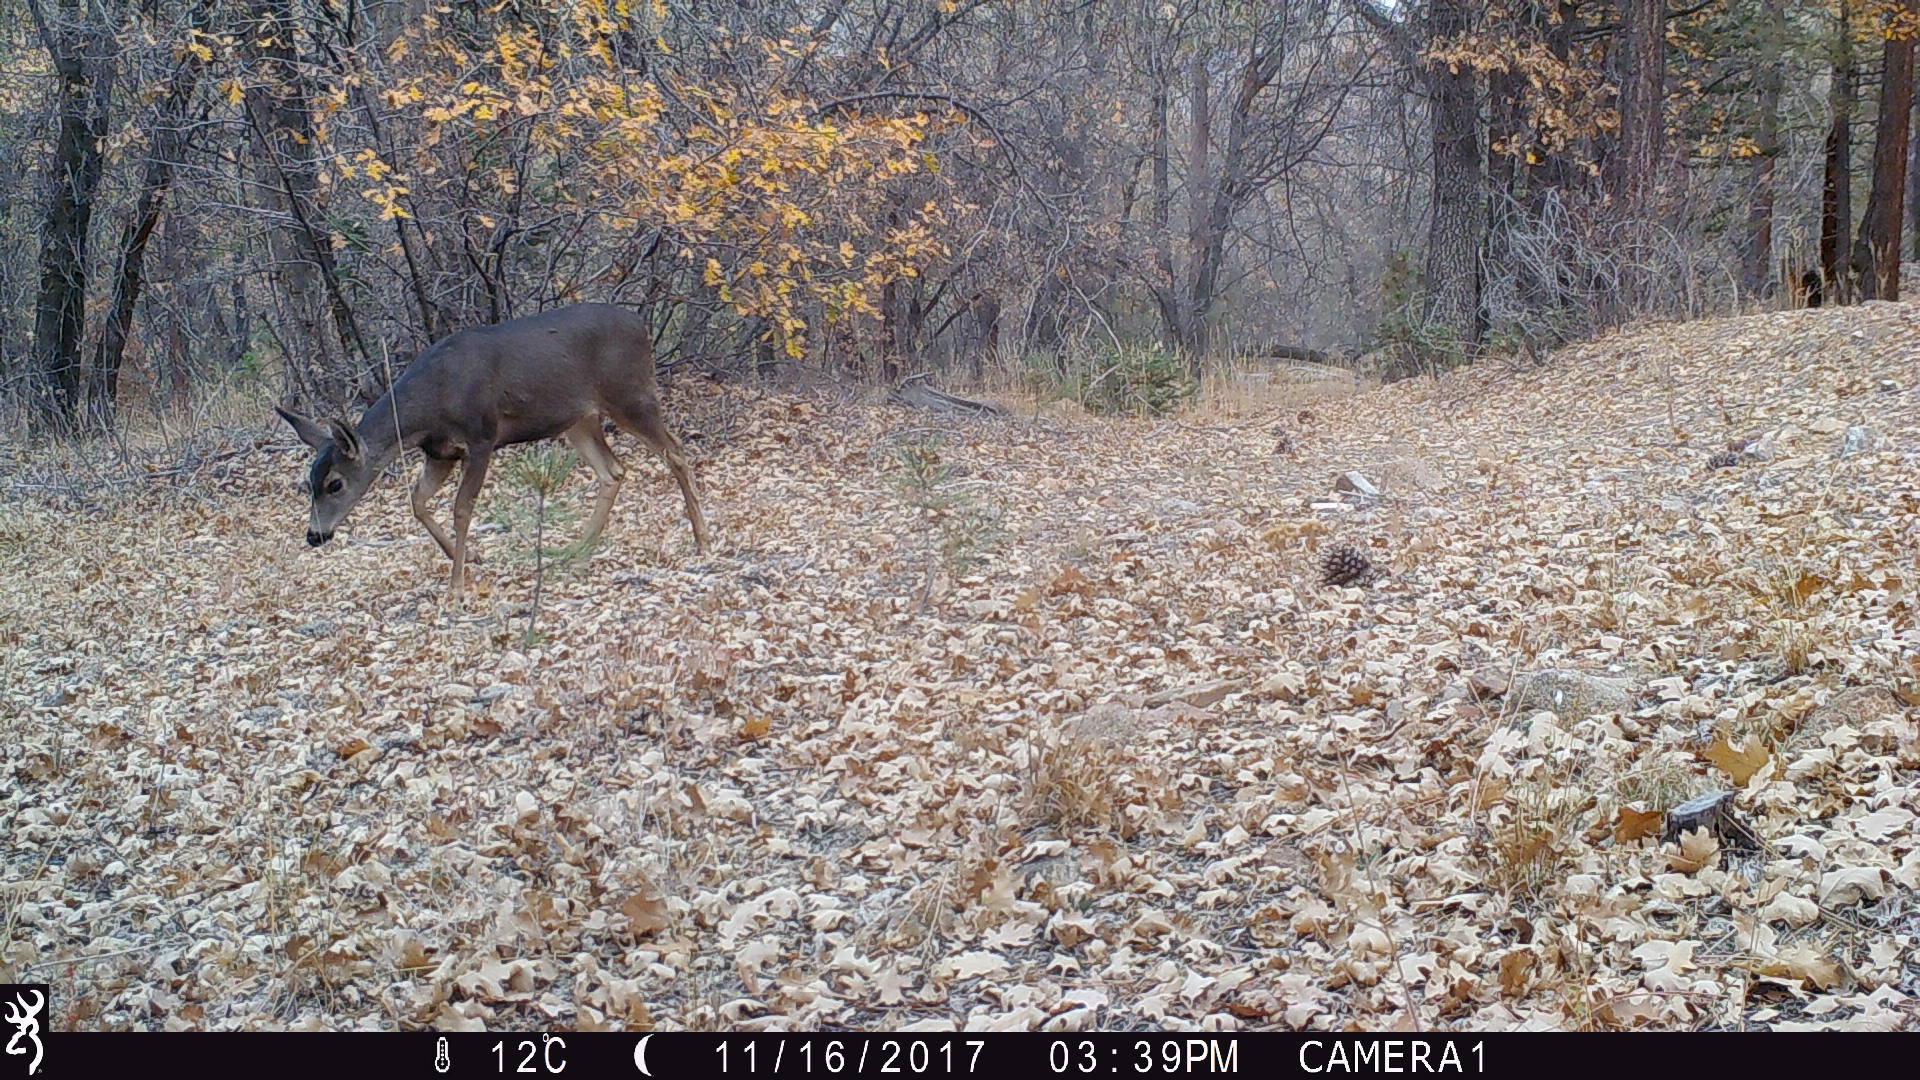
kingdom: Animalia
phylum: Chordata
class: Mammalia
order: Artiodactyla
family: Cervidae
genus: Odocoileus
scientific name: Odocoileus hemionus
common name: Mule deer
